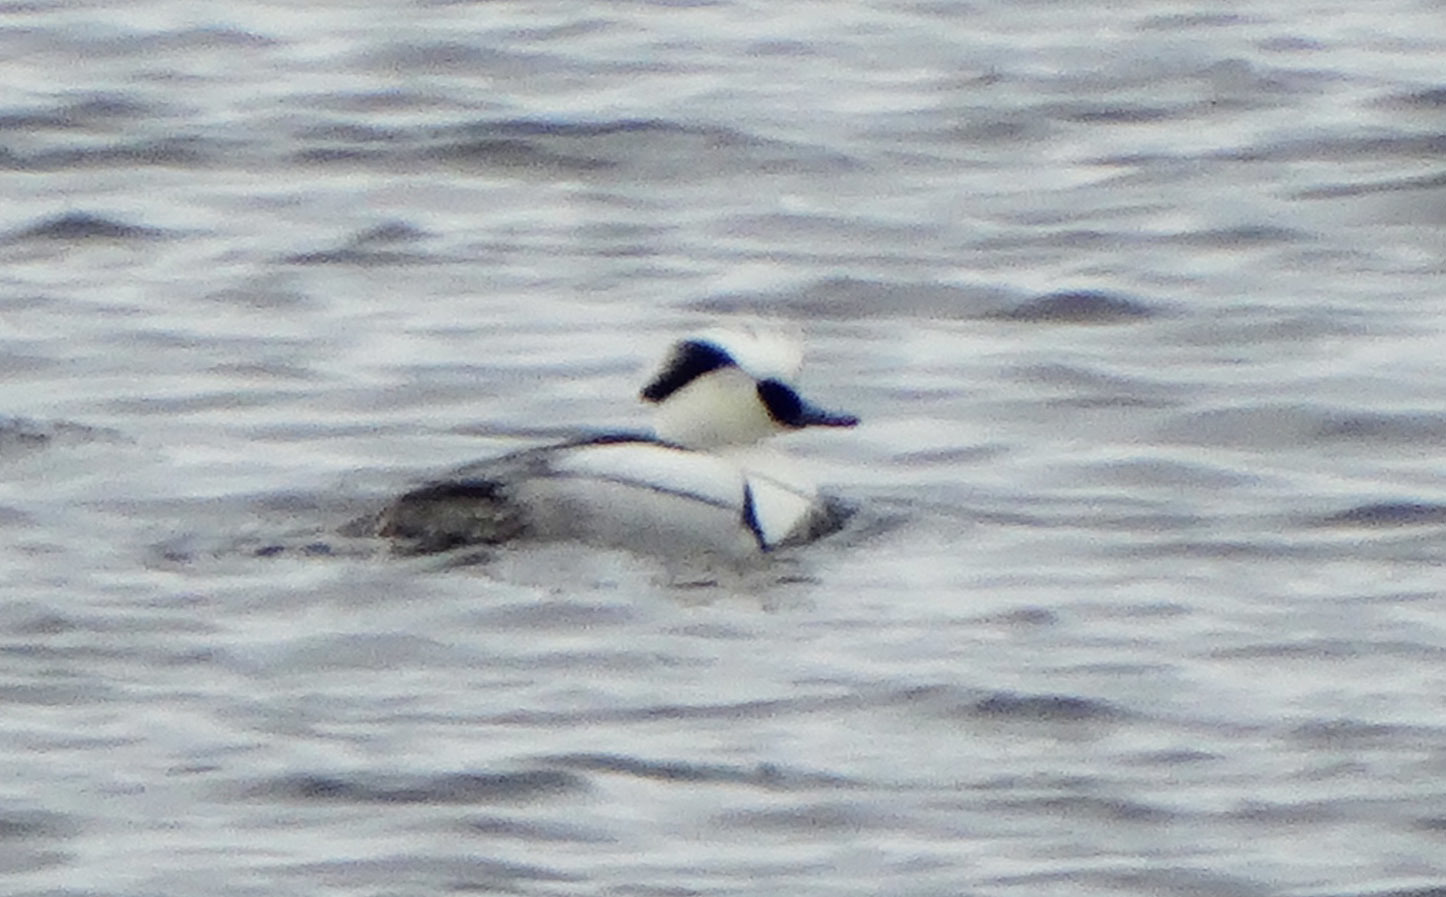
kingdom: Animalia
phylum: Chordata
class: Aves
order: Anseriformes
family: Anatidae
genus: Mergellus
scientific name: Mergellus albellus
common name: Smew
